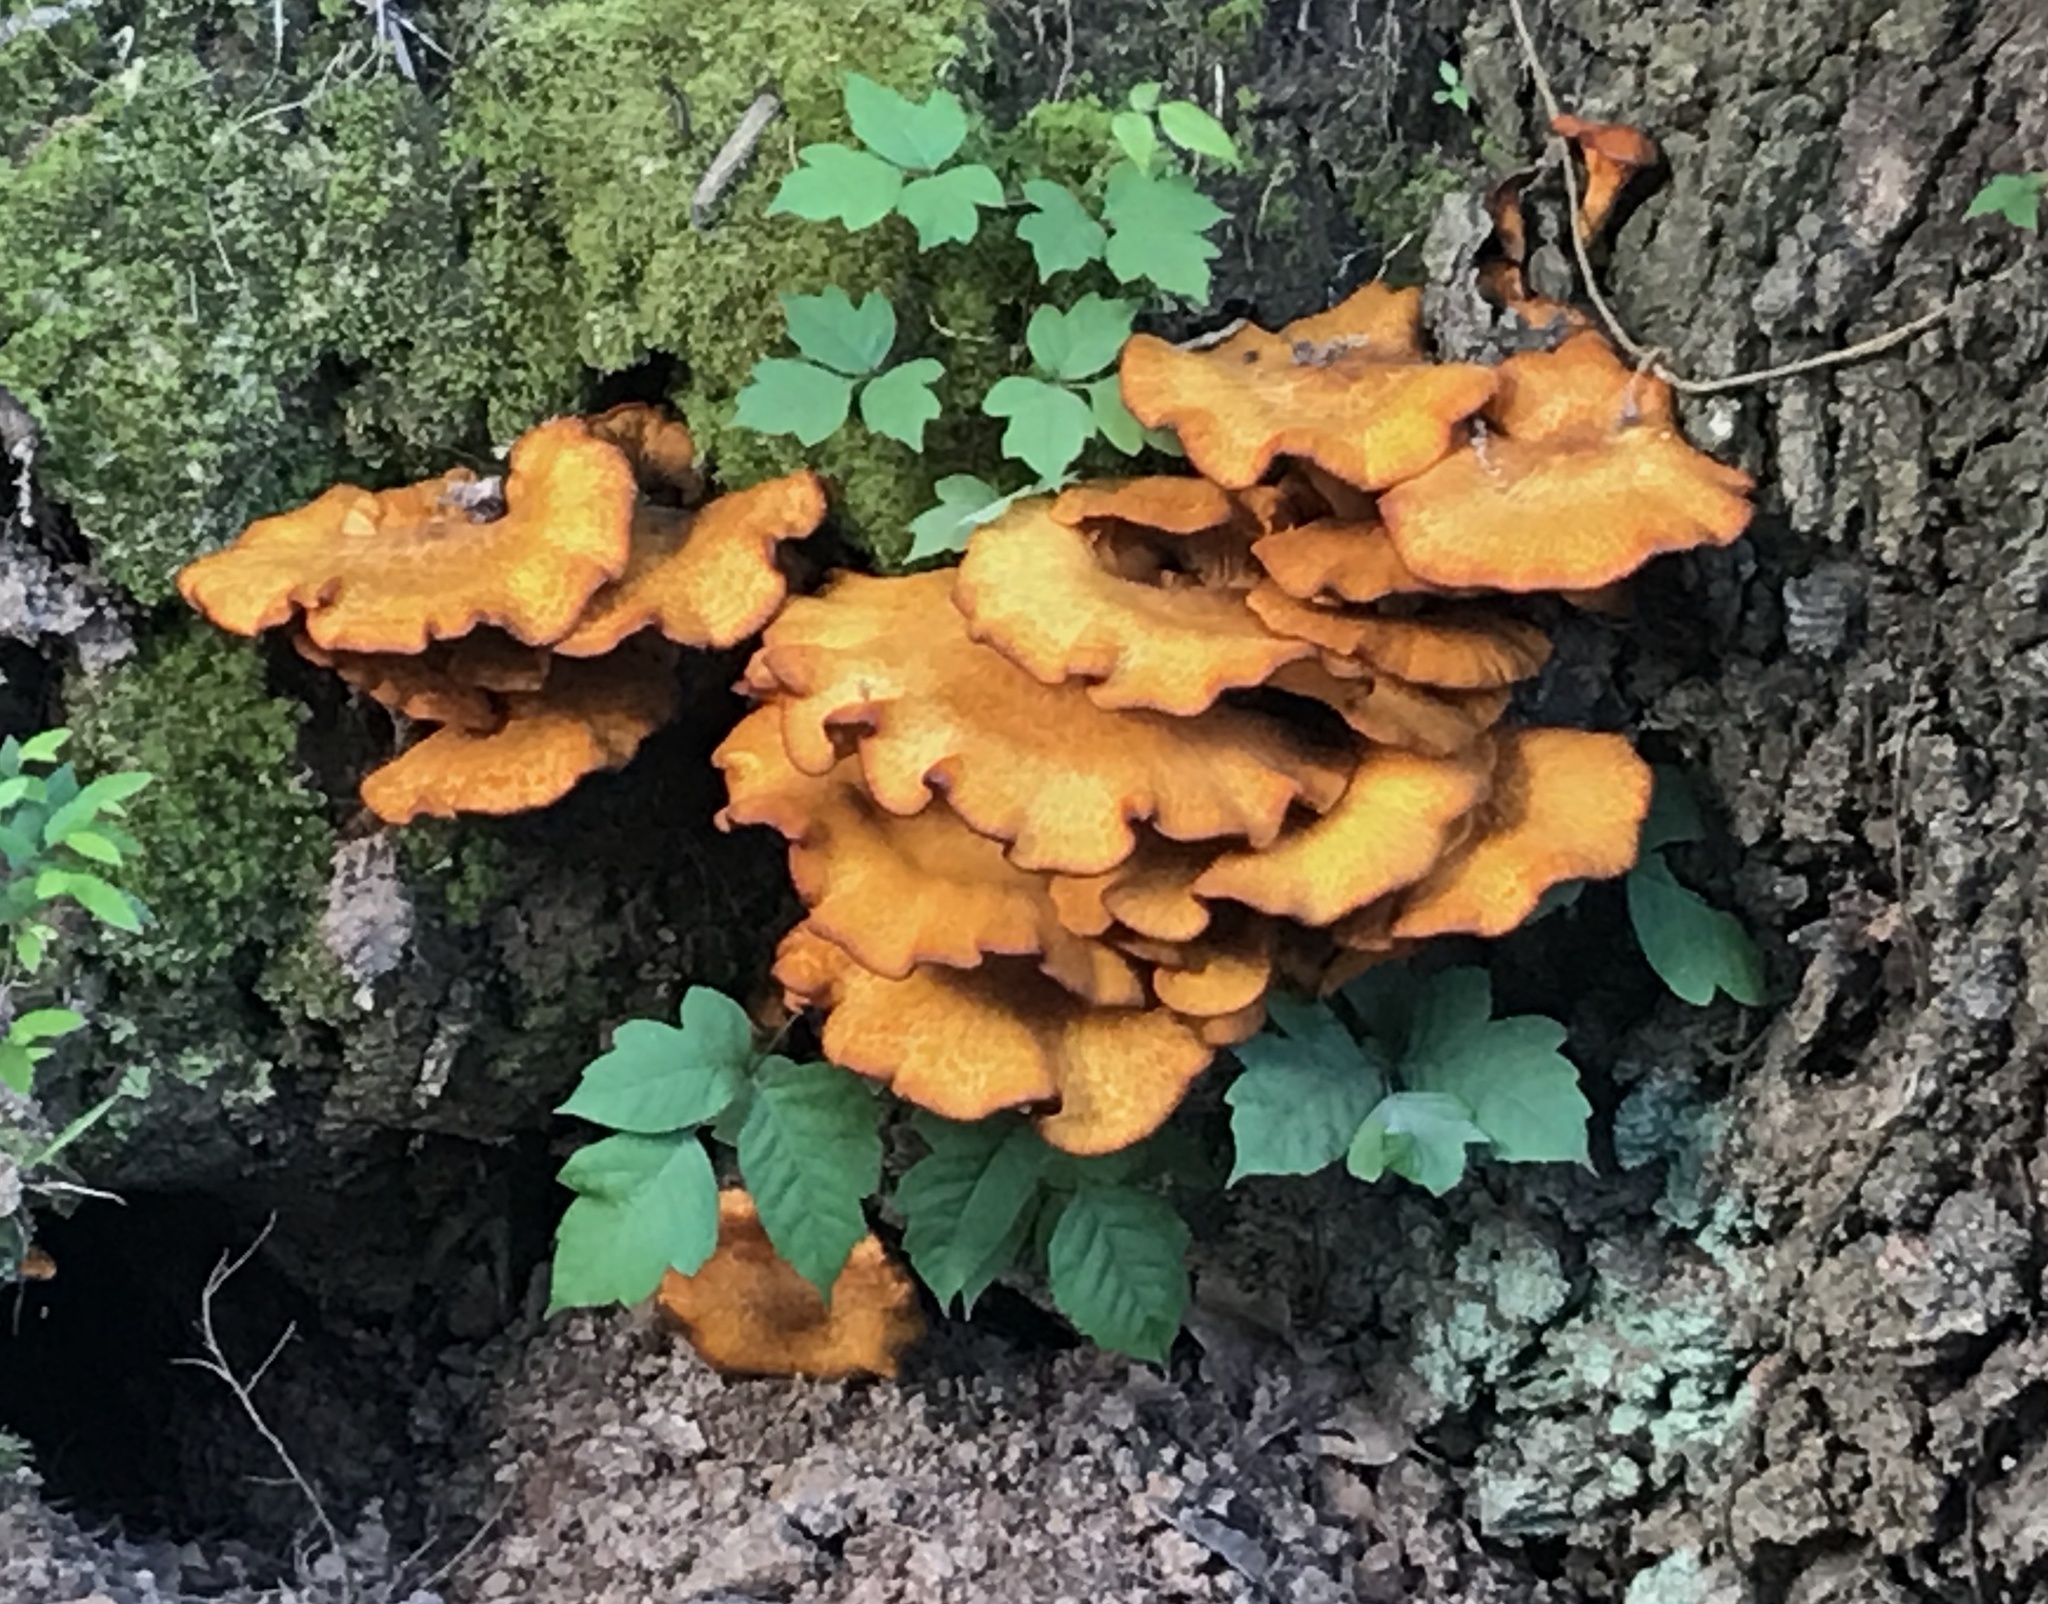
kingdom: Fungi
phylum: Basidiomycota
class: Agaricomycetes
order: Agaricales
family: Omphalotaceae
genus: Omphalotus
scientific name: Omphalotus subilludens
